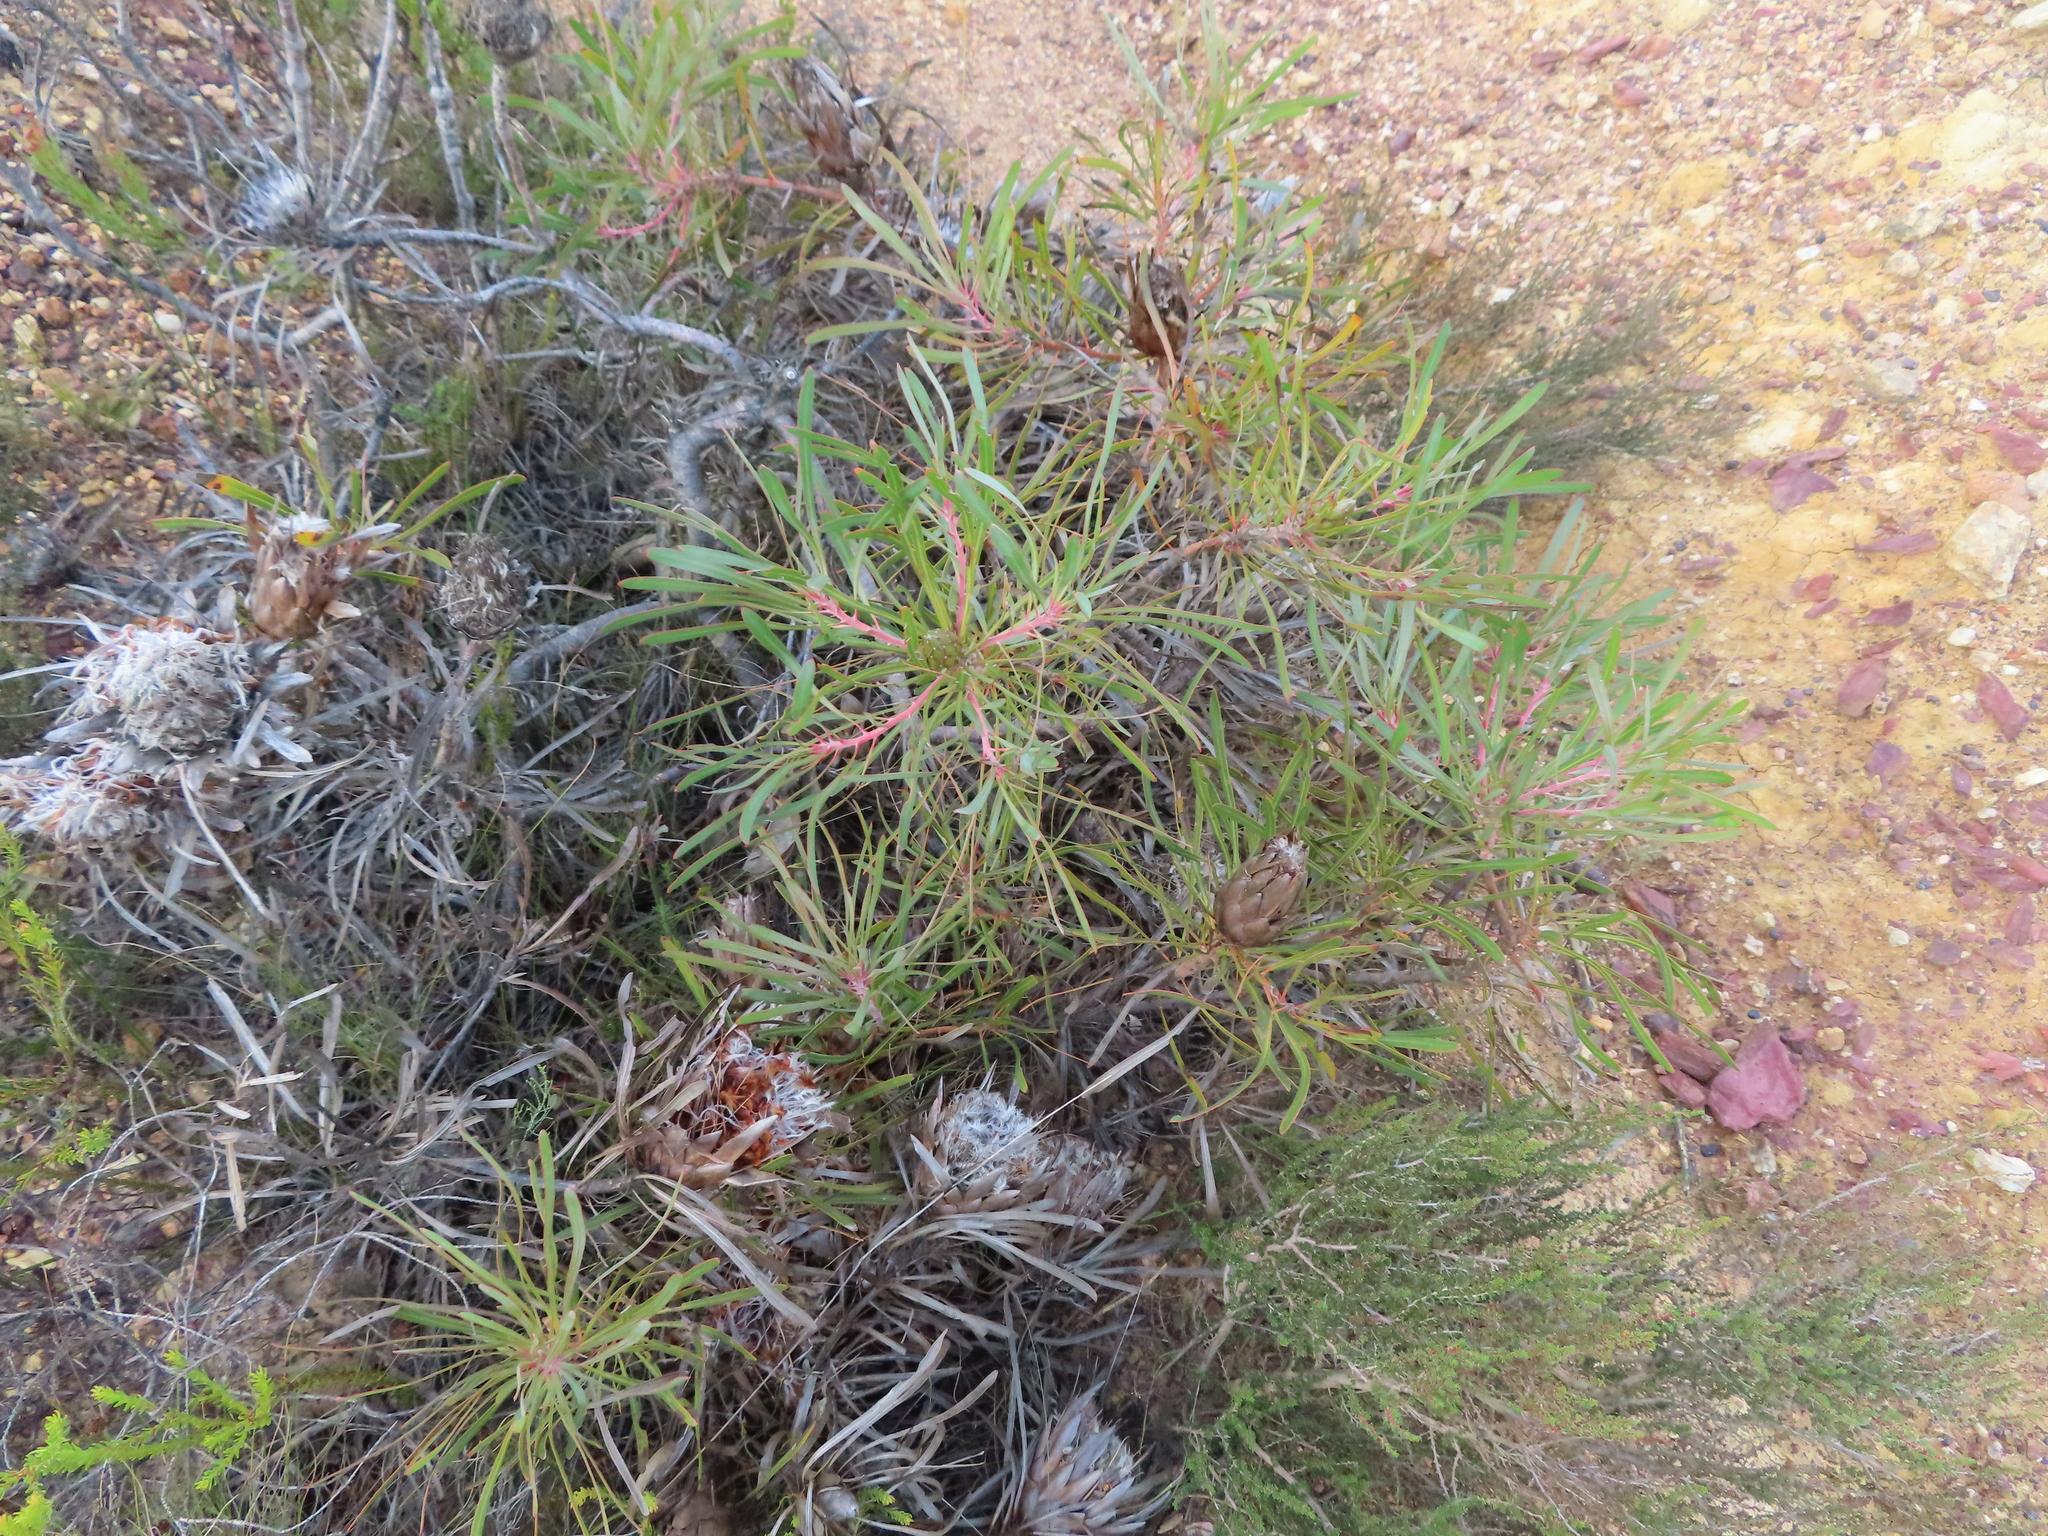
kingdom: Plantae
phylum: Tracheophyta
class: Magnoliopsida
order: Proteales
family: Proteaceae
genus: Protea
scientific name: Protea longifolia
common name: Long-leaf sugarbush
